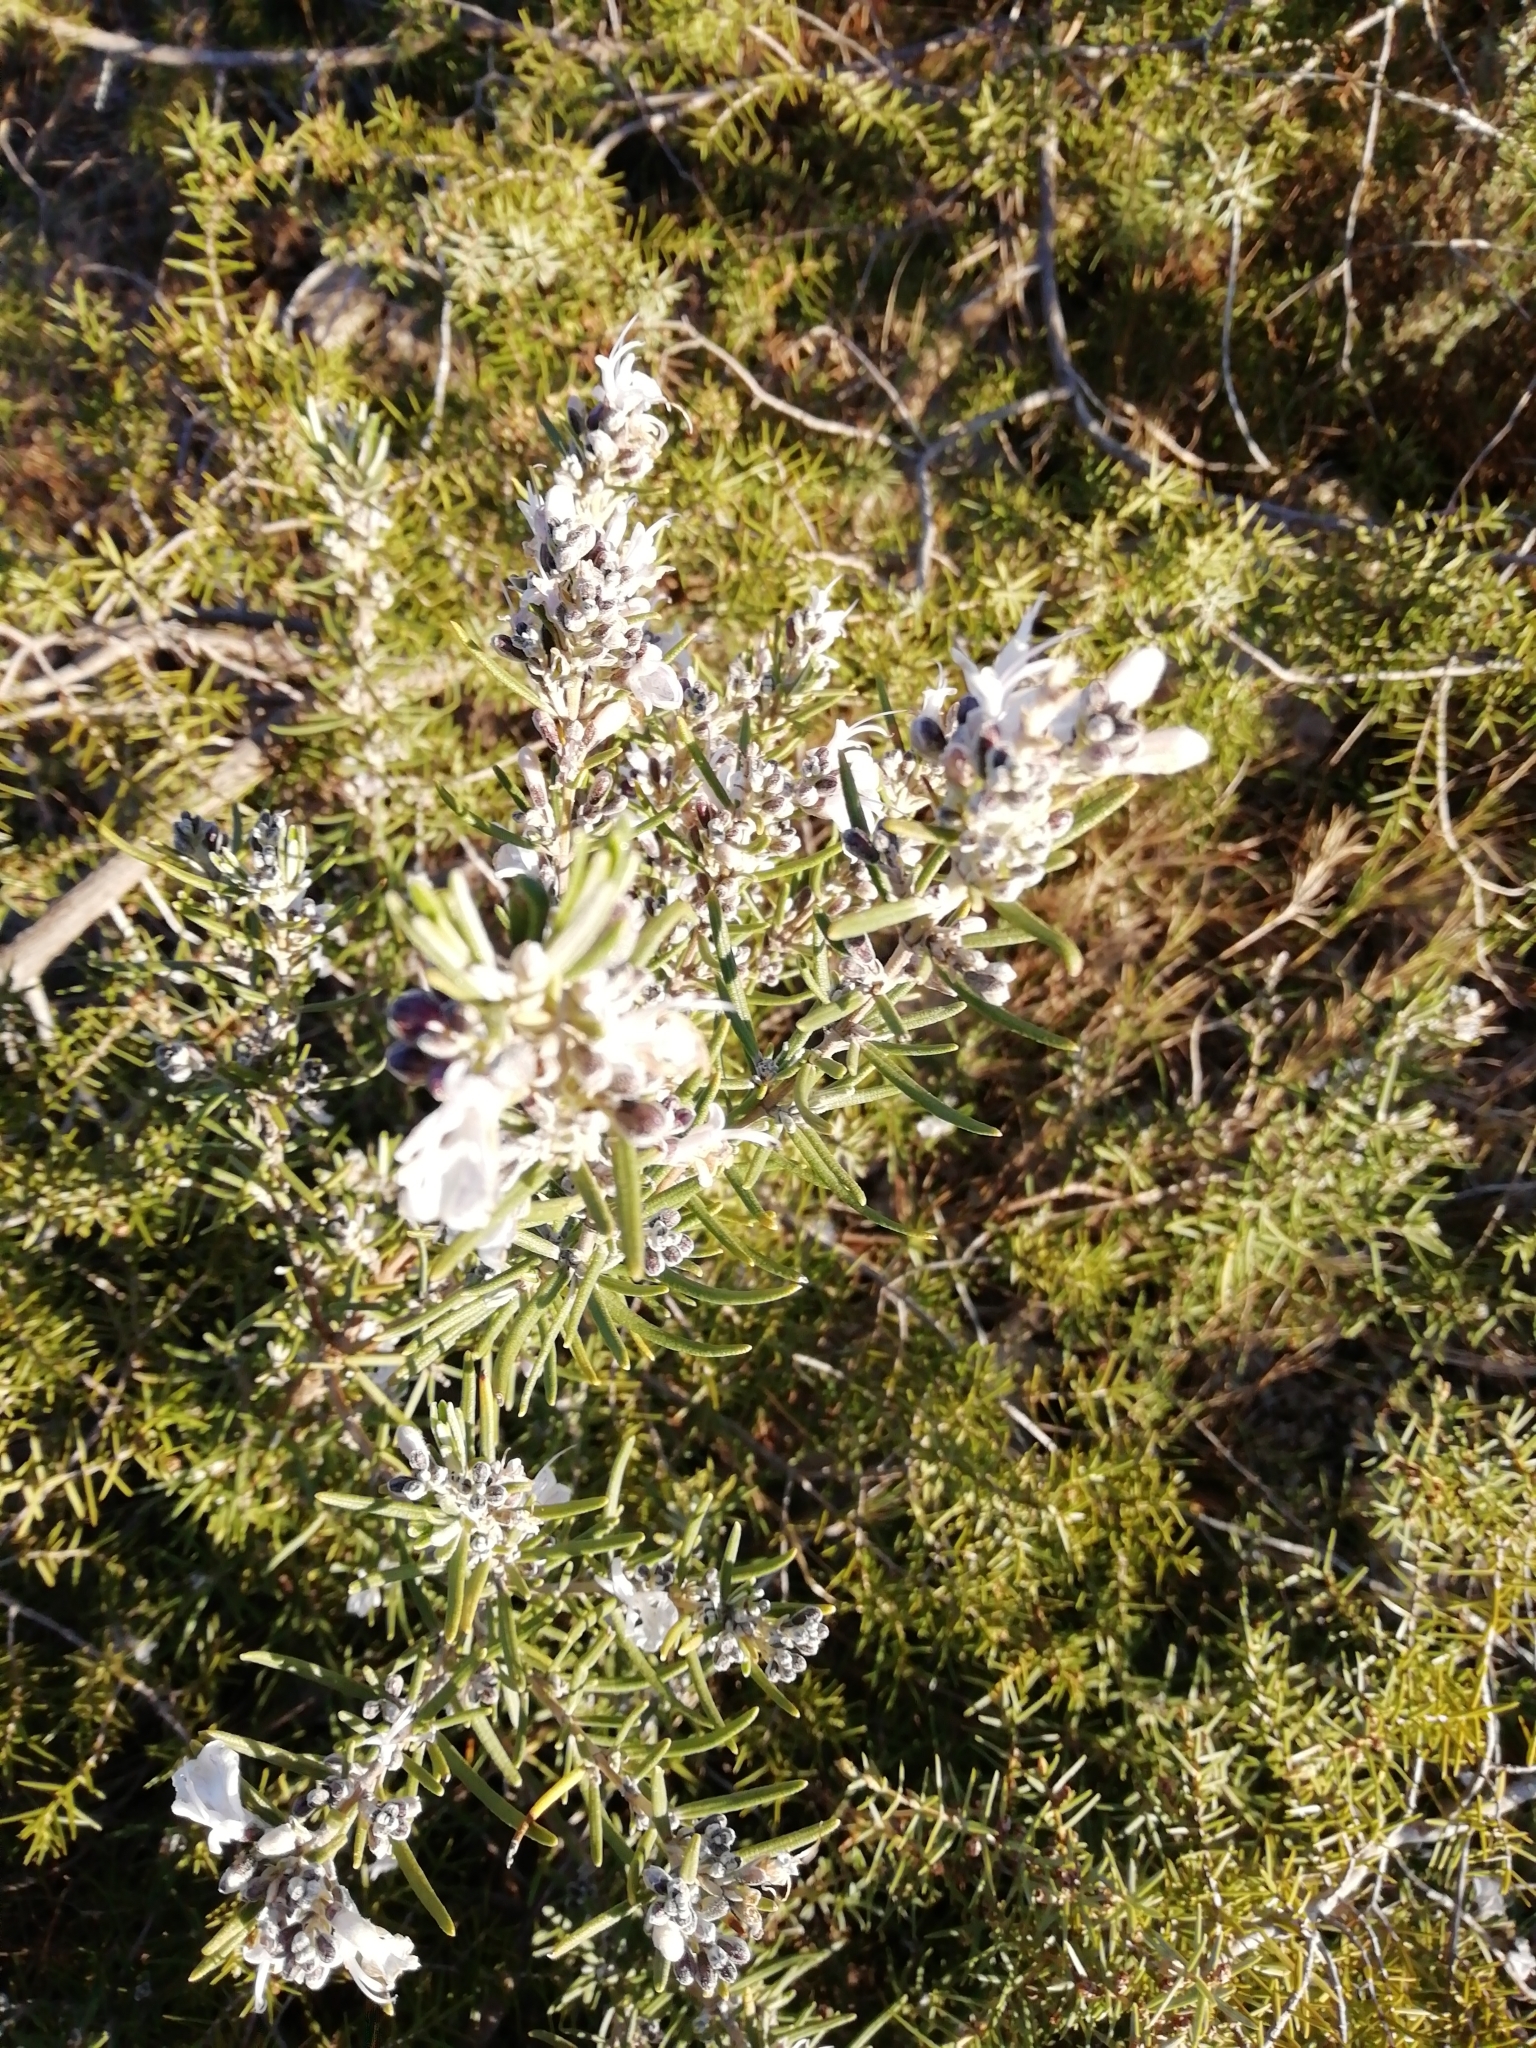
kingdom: Plantae
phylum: Tracheophyta
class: Magnoliopsida
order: Lamiales
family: Lamiaceae
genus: Salvia
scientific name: Salvia rosmarinus
